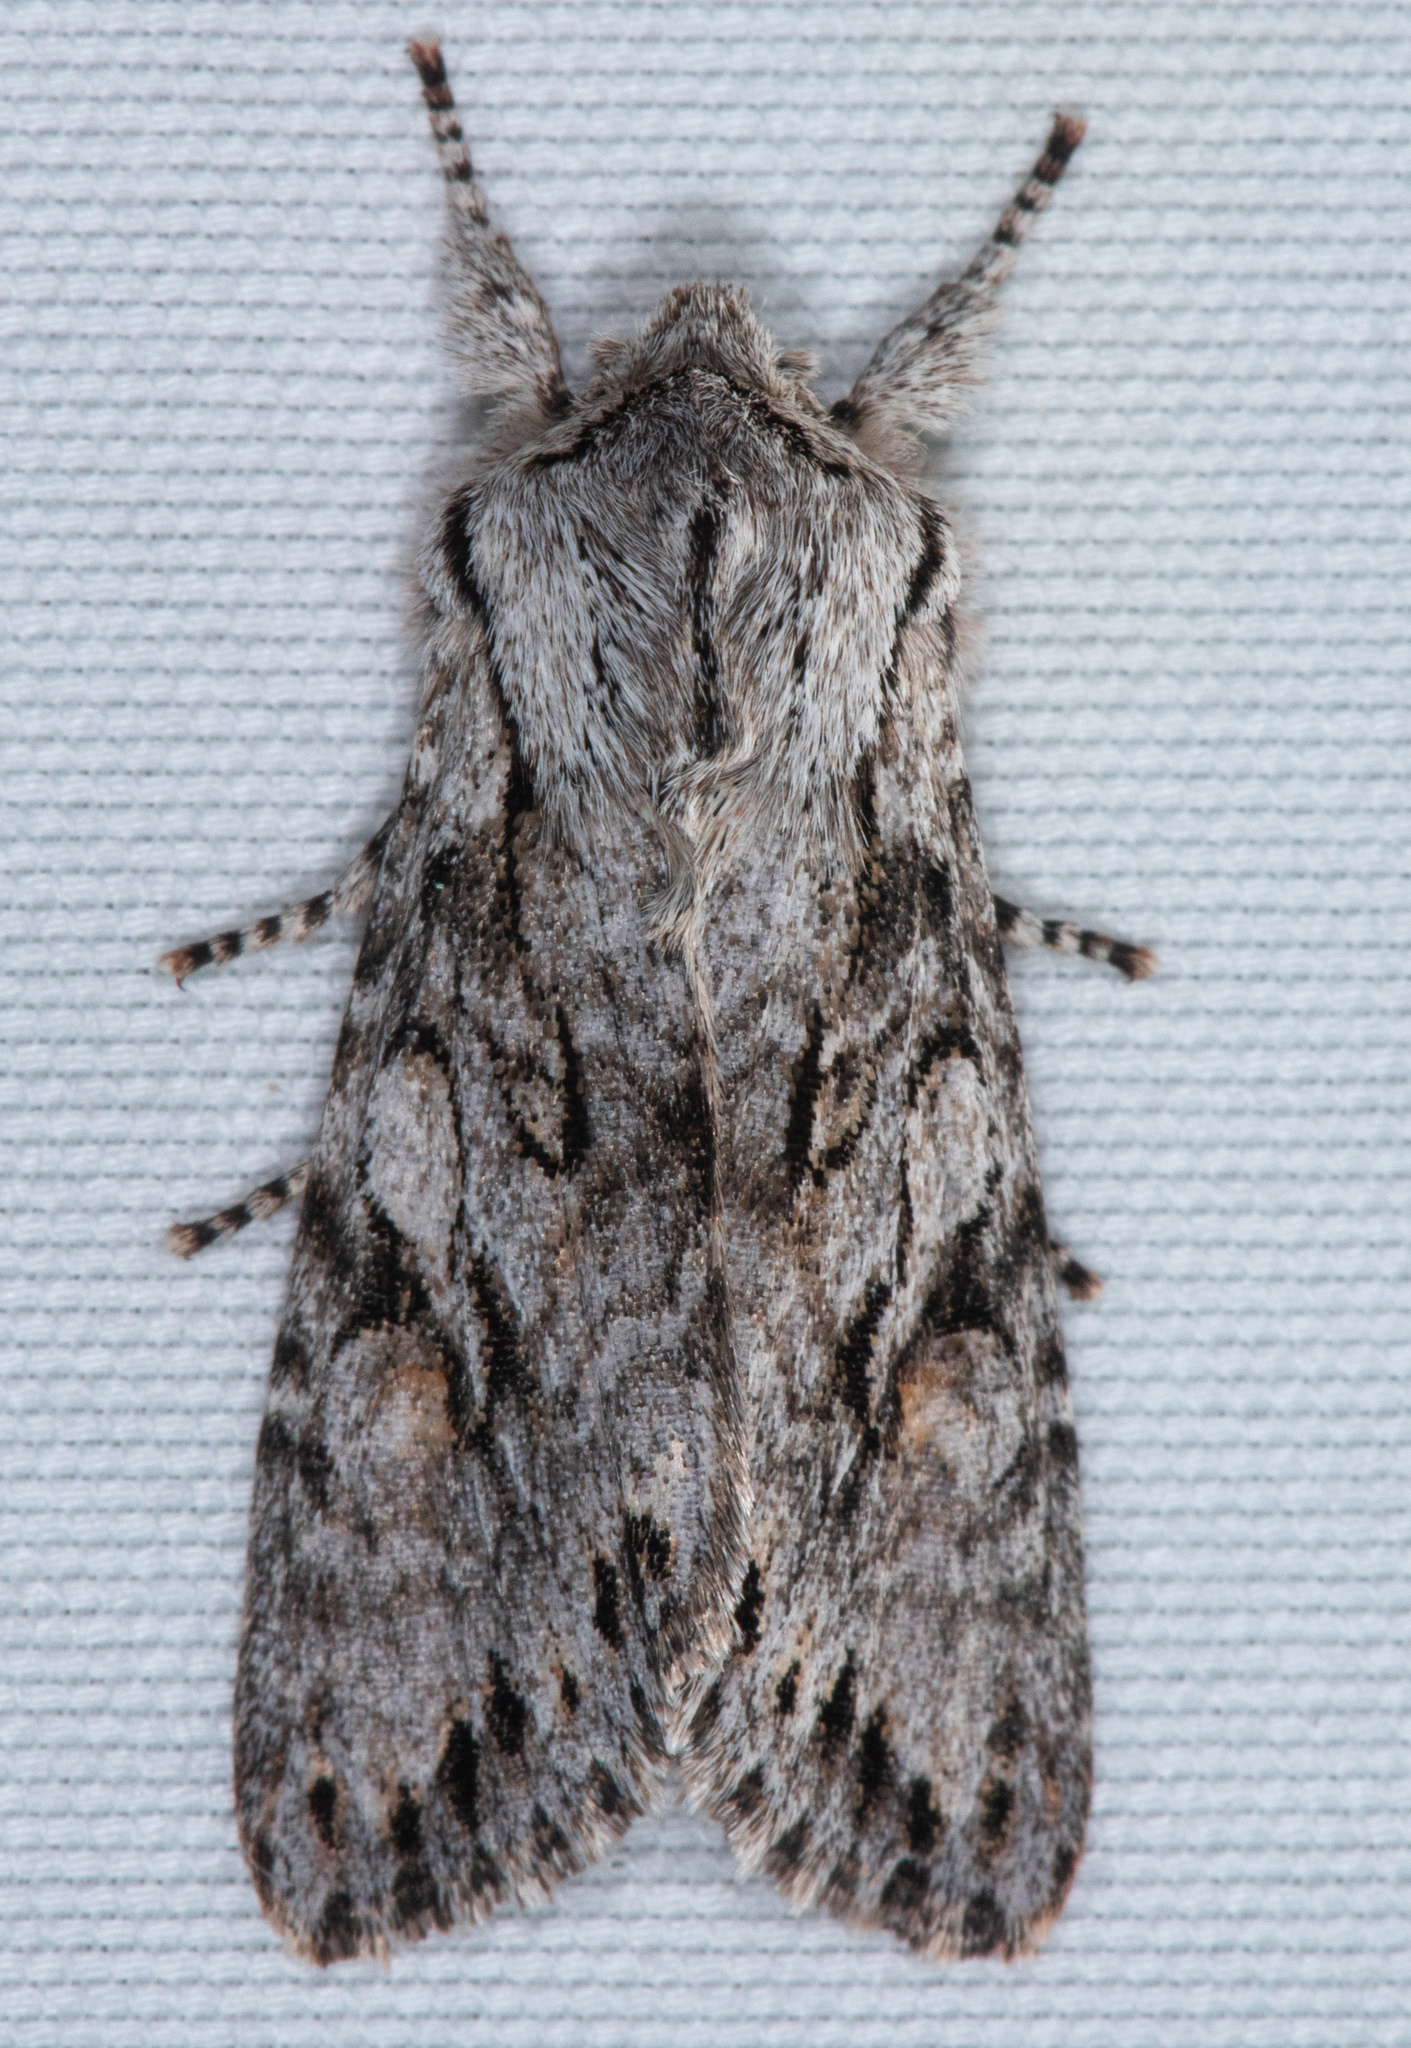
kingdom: Animalia
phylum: Arthropoda
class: Insecta
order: Lepidoptera
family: Noctuidae
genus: Egira
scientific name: Egira crucialis
